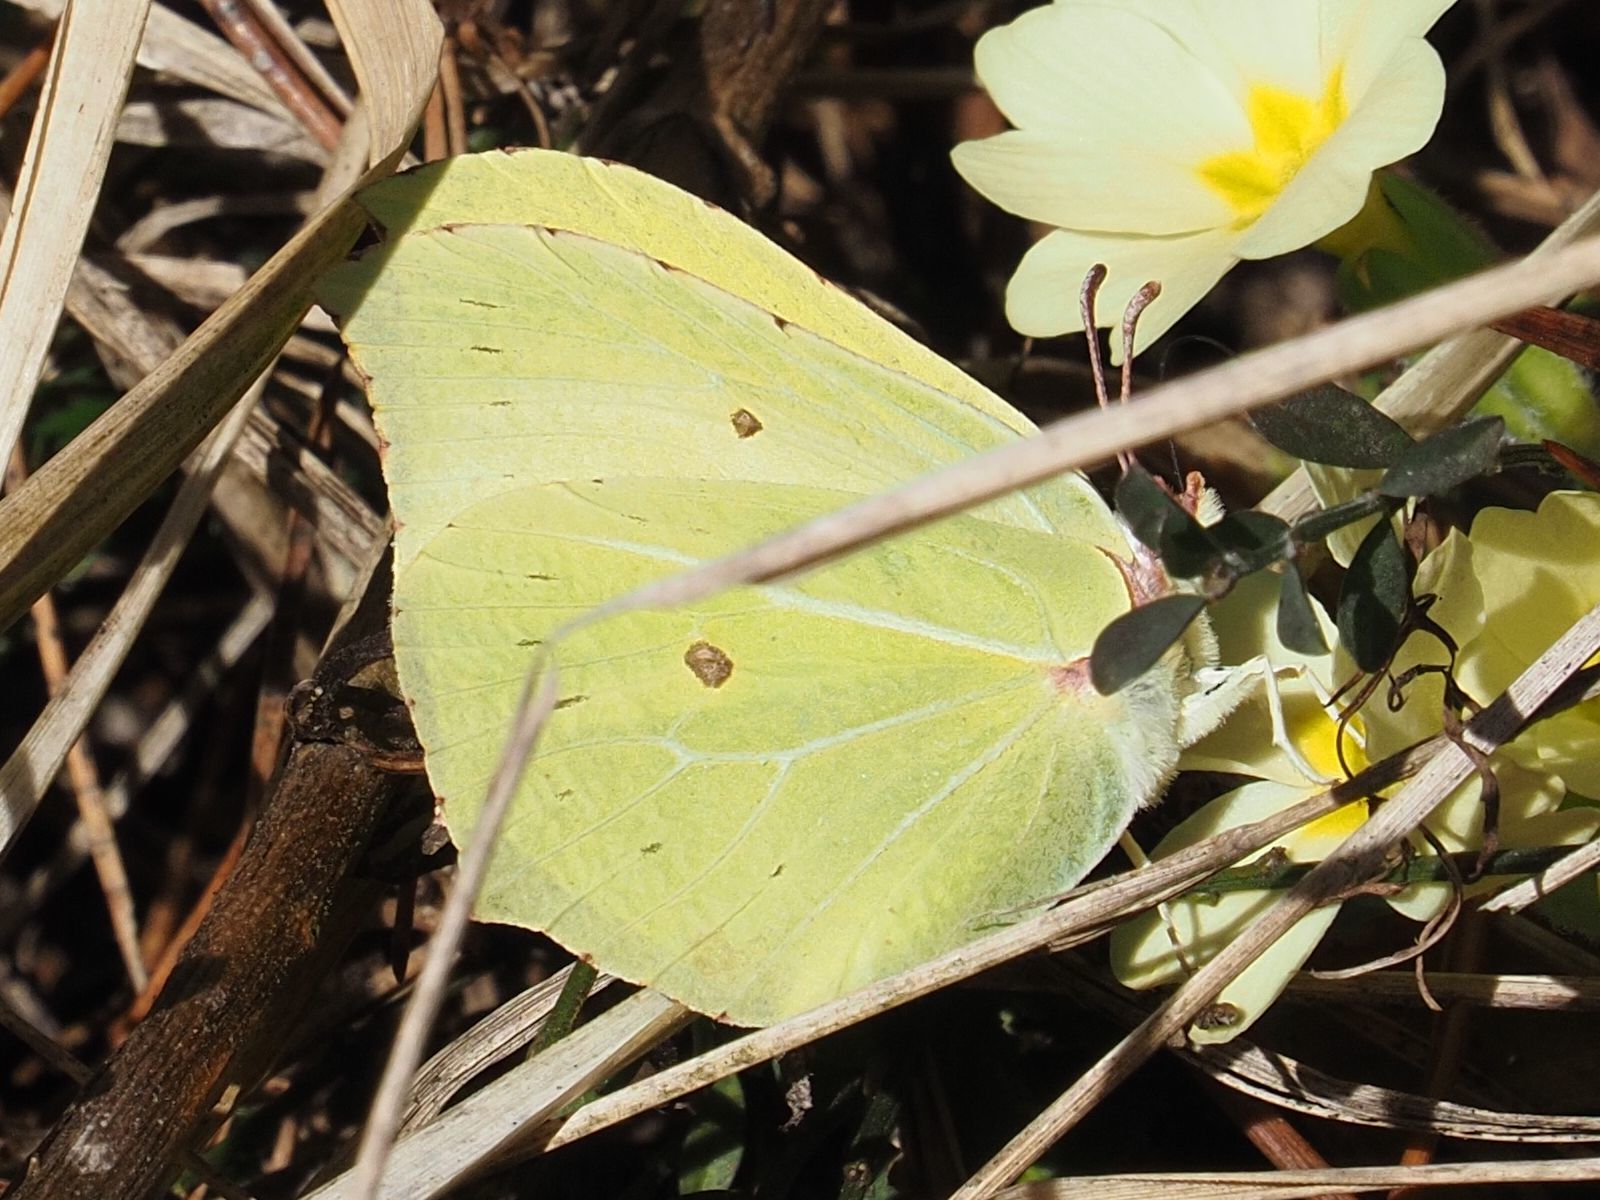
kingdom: Animalia
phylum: Arthropoda
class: Insecta
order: Lepidoptera
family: Pieridae
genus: Gonepteryx
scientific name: Gonepteryx rhamni
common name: Brimstone
